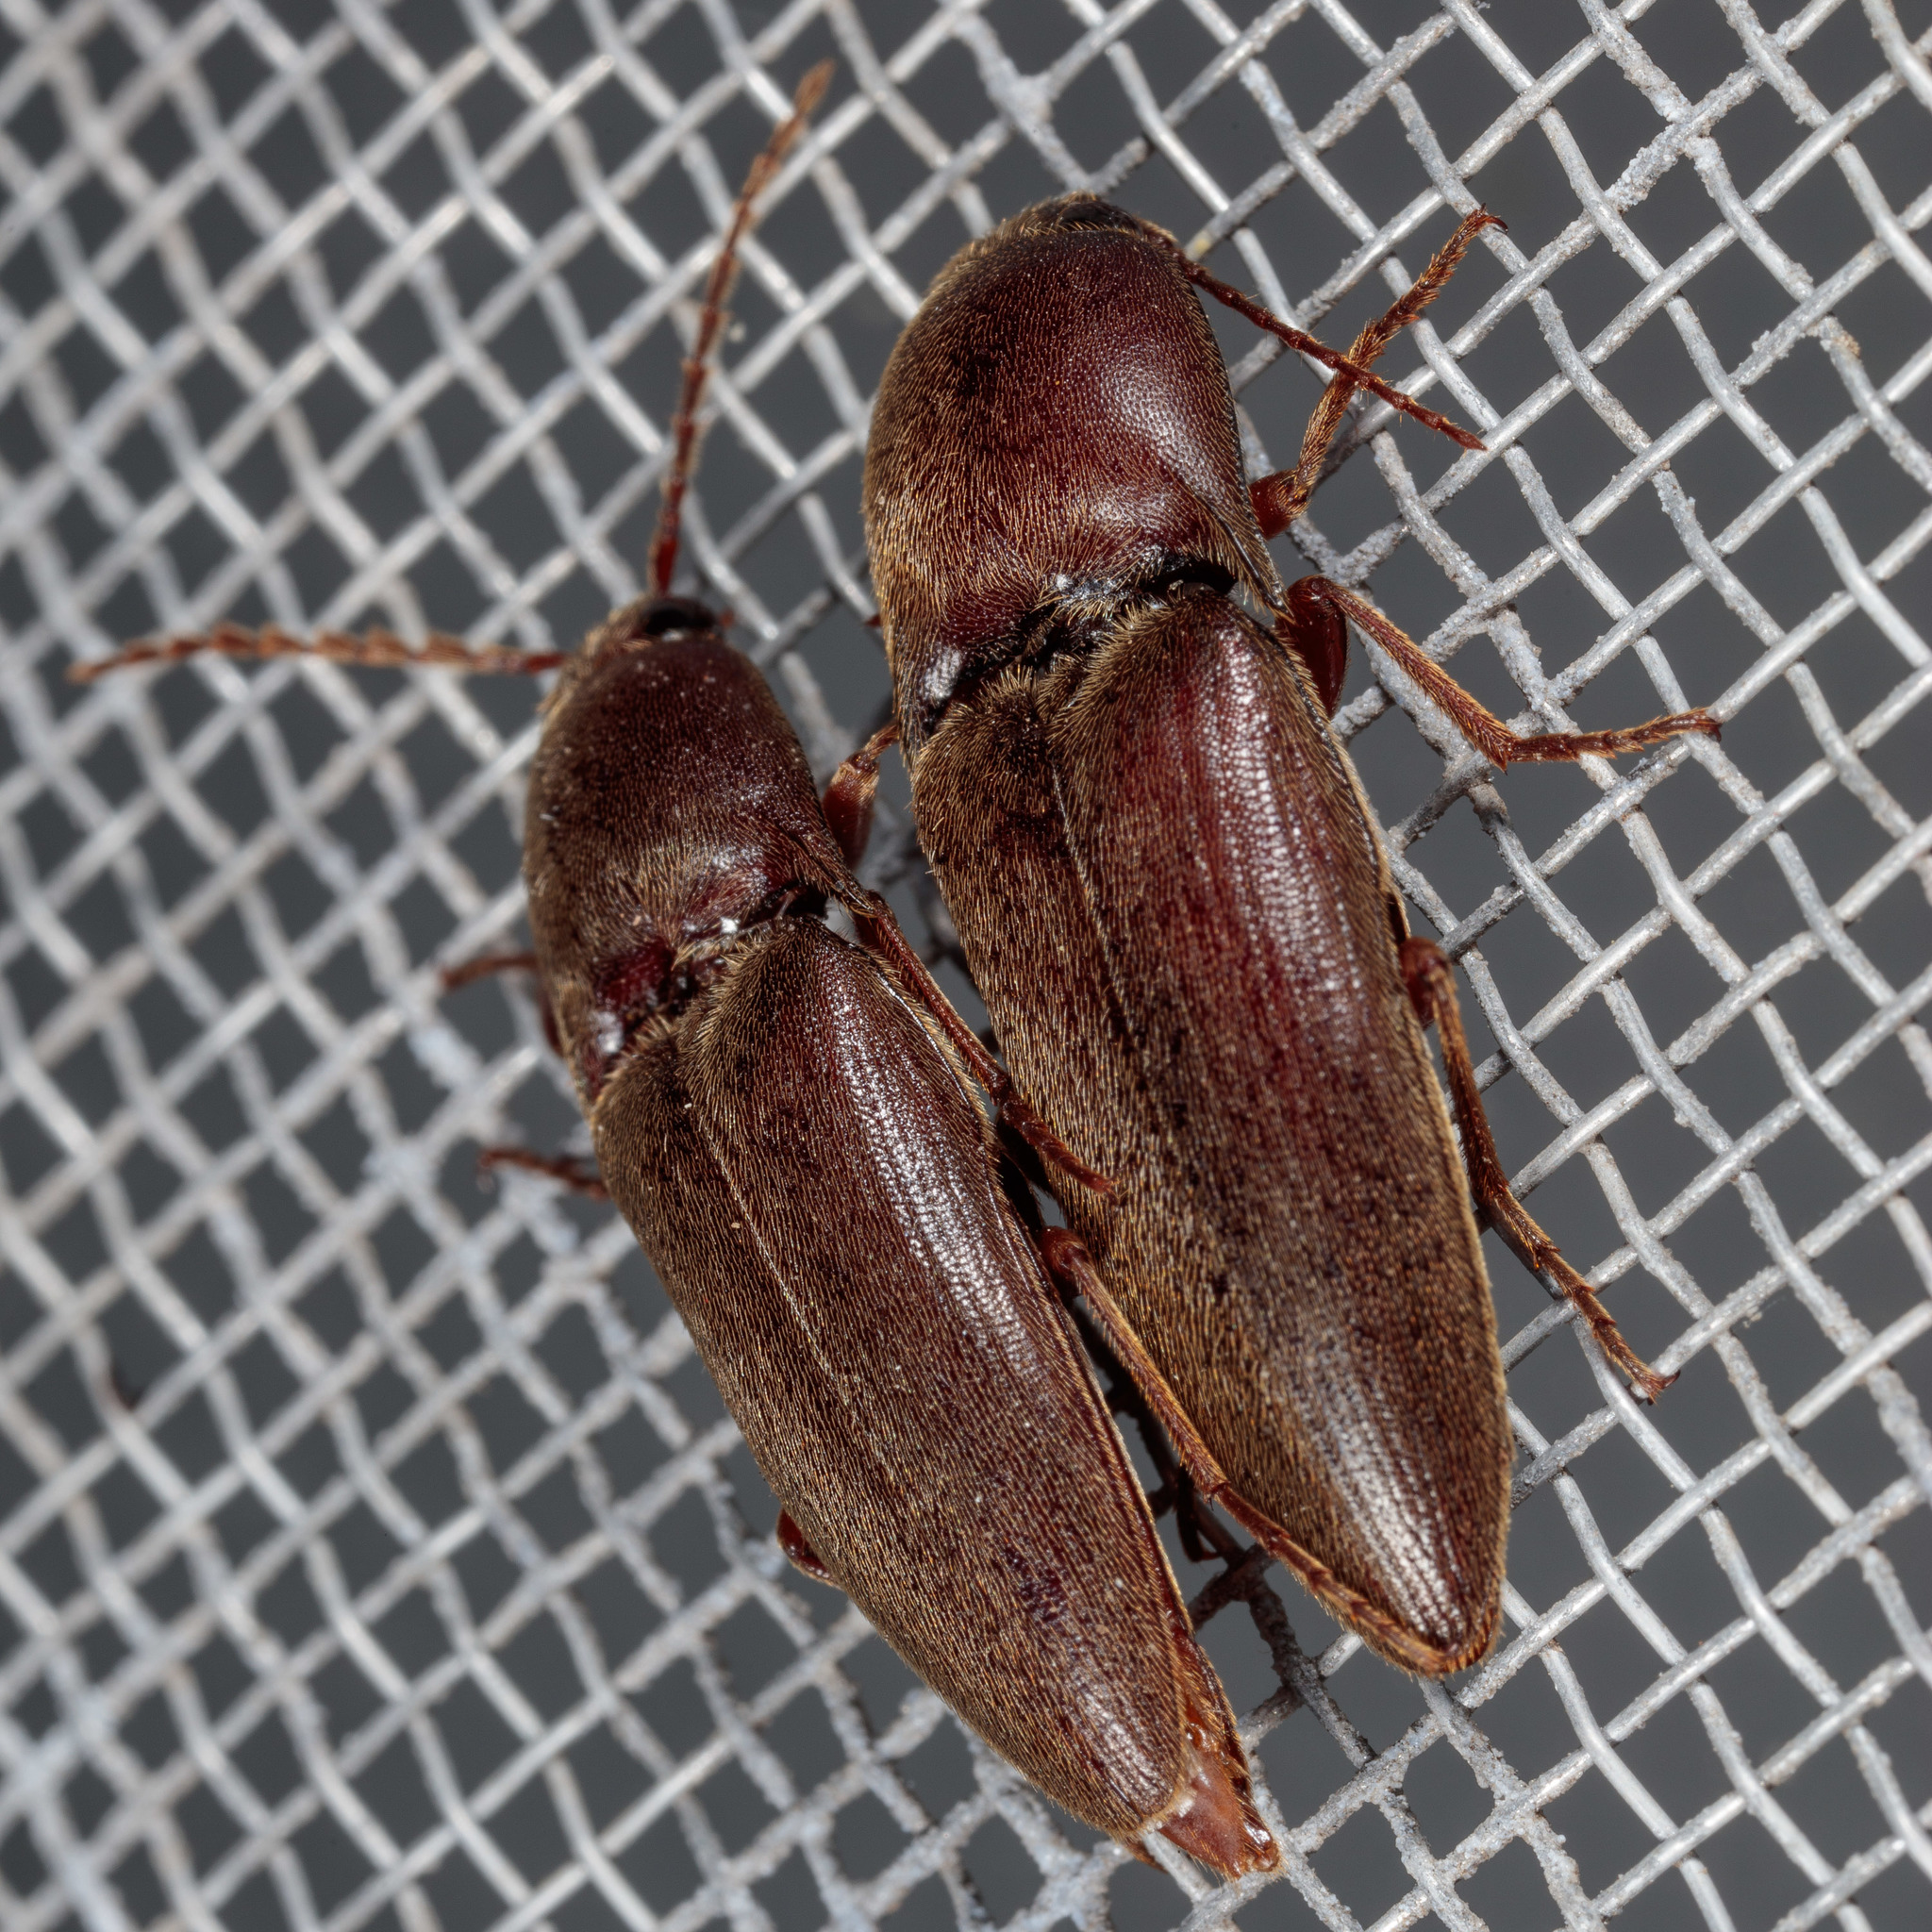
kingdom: Animalia
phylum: Arthropoda
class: Insecta
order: Coleoptera
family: Elateridae
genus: Diplostethus
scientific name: Diplostethus
